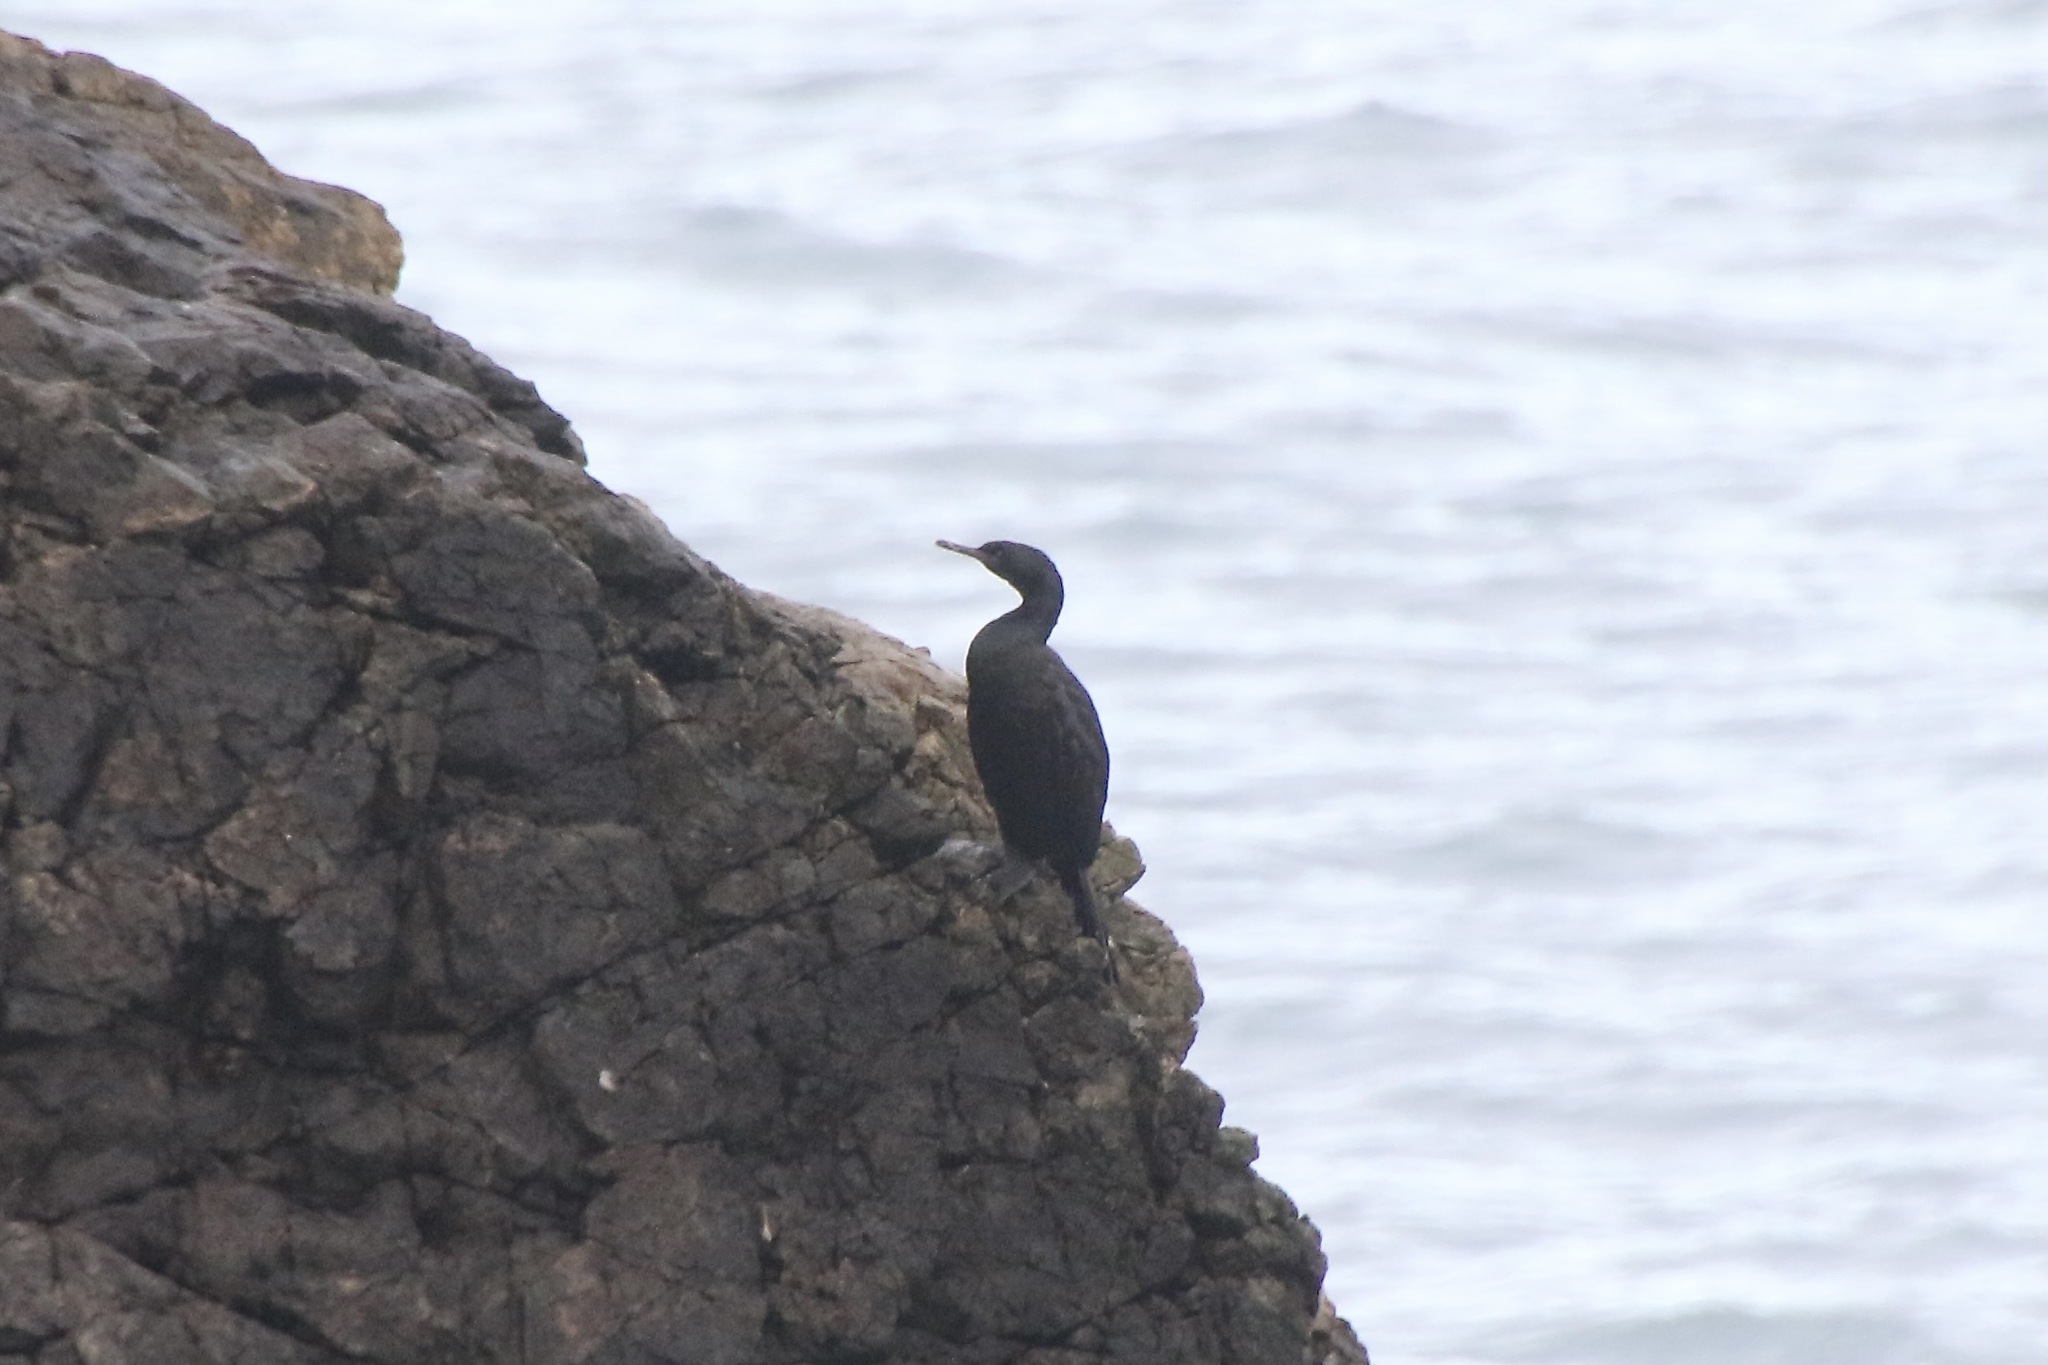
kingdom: Animalia
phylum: Chordata
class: Aves
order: Suliformes
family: Phalacrocoracidae
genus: Phalacrocorax
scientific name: Phalacrocorax pelagicus
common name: Pelagic cormorant
